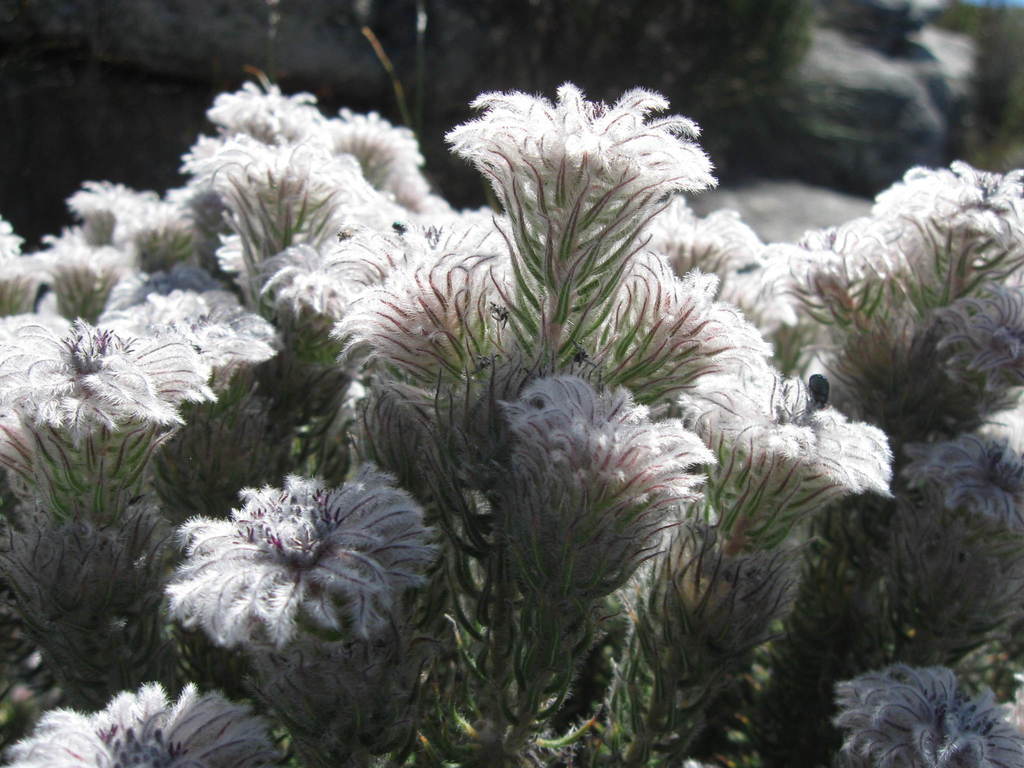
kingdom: Plantae
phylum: Tracheophyta
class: Magnoliopsida
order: Rosales
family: Rhamnaceae
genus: Phylica
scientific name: Phylica plumigera
